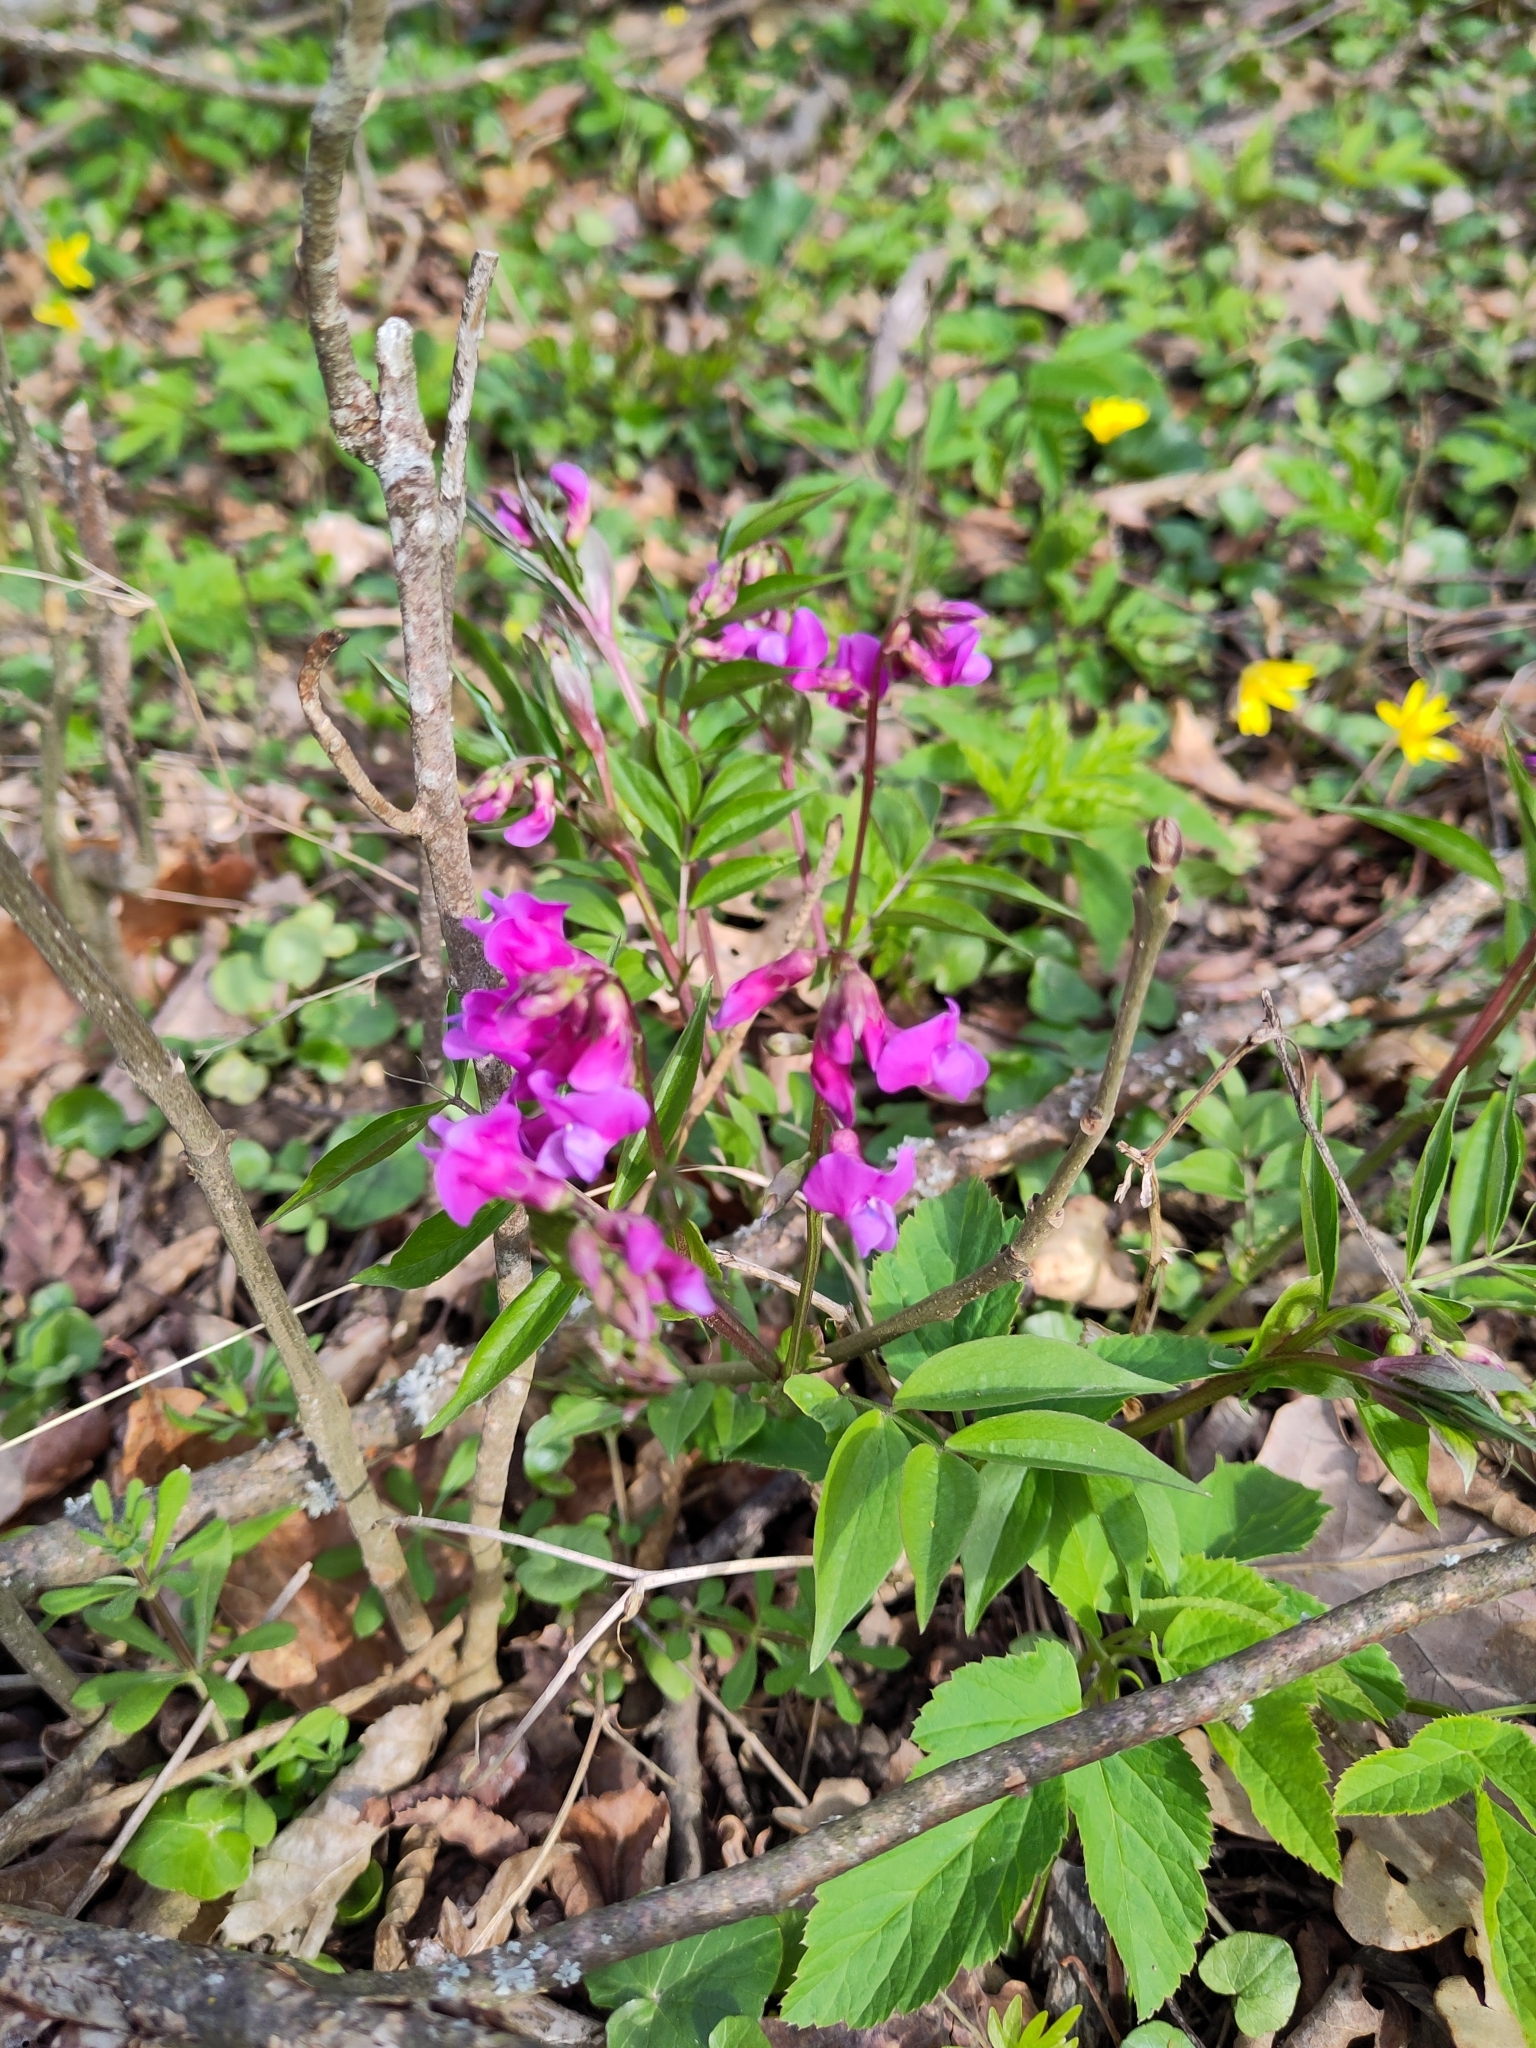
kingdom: Plantae
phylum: Tracheophyta
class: Magnoliopsida
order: Fabales
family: Fabaceae
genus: Lathyrus
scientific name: Lathyrus vernus
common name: Spring pea
